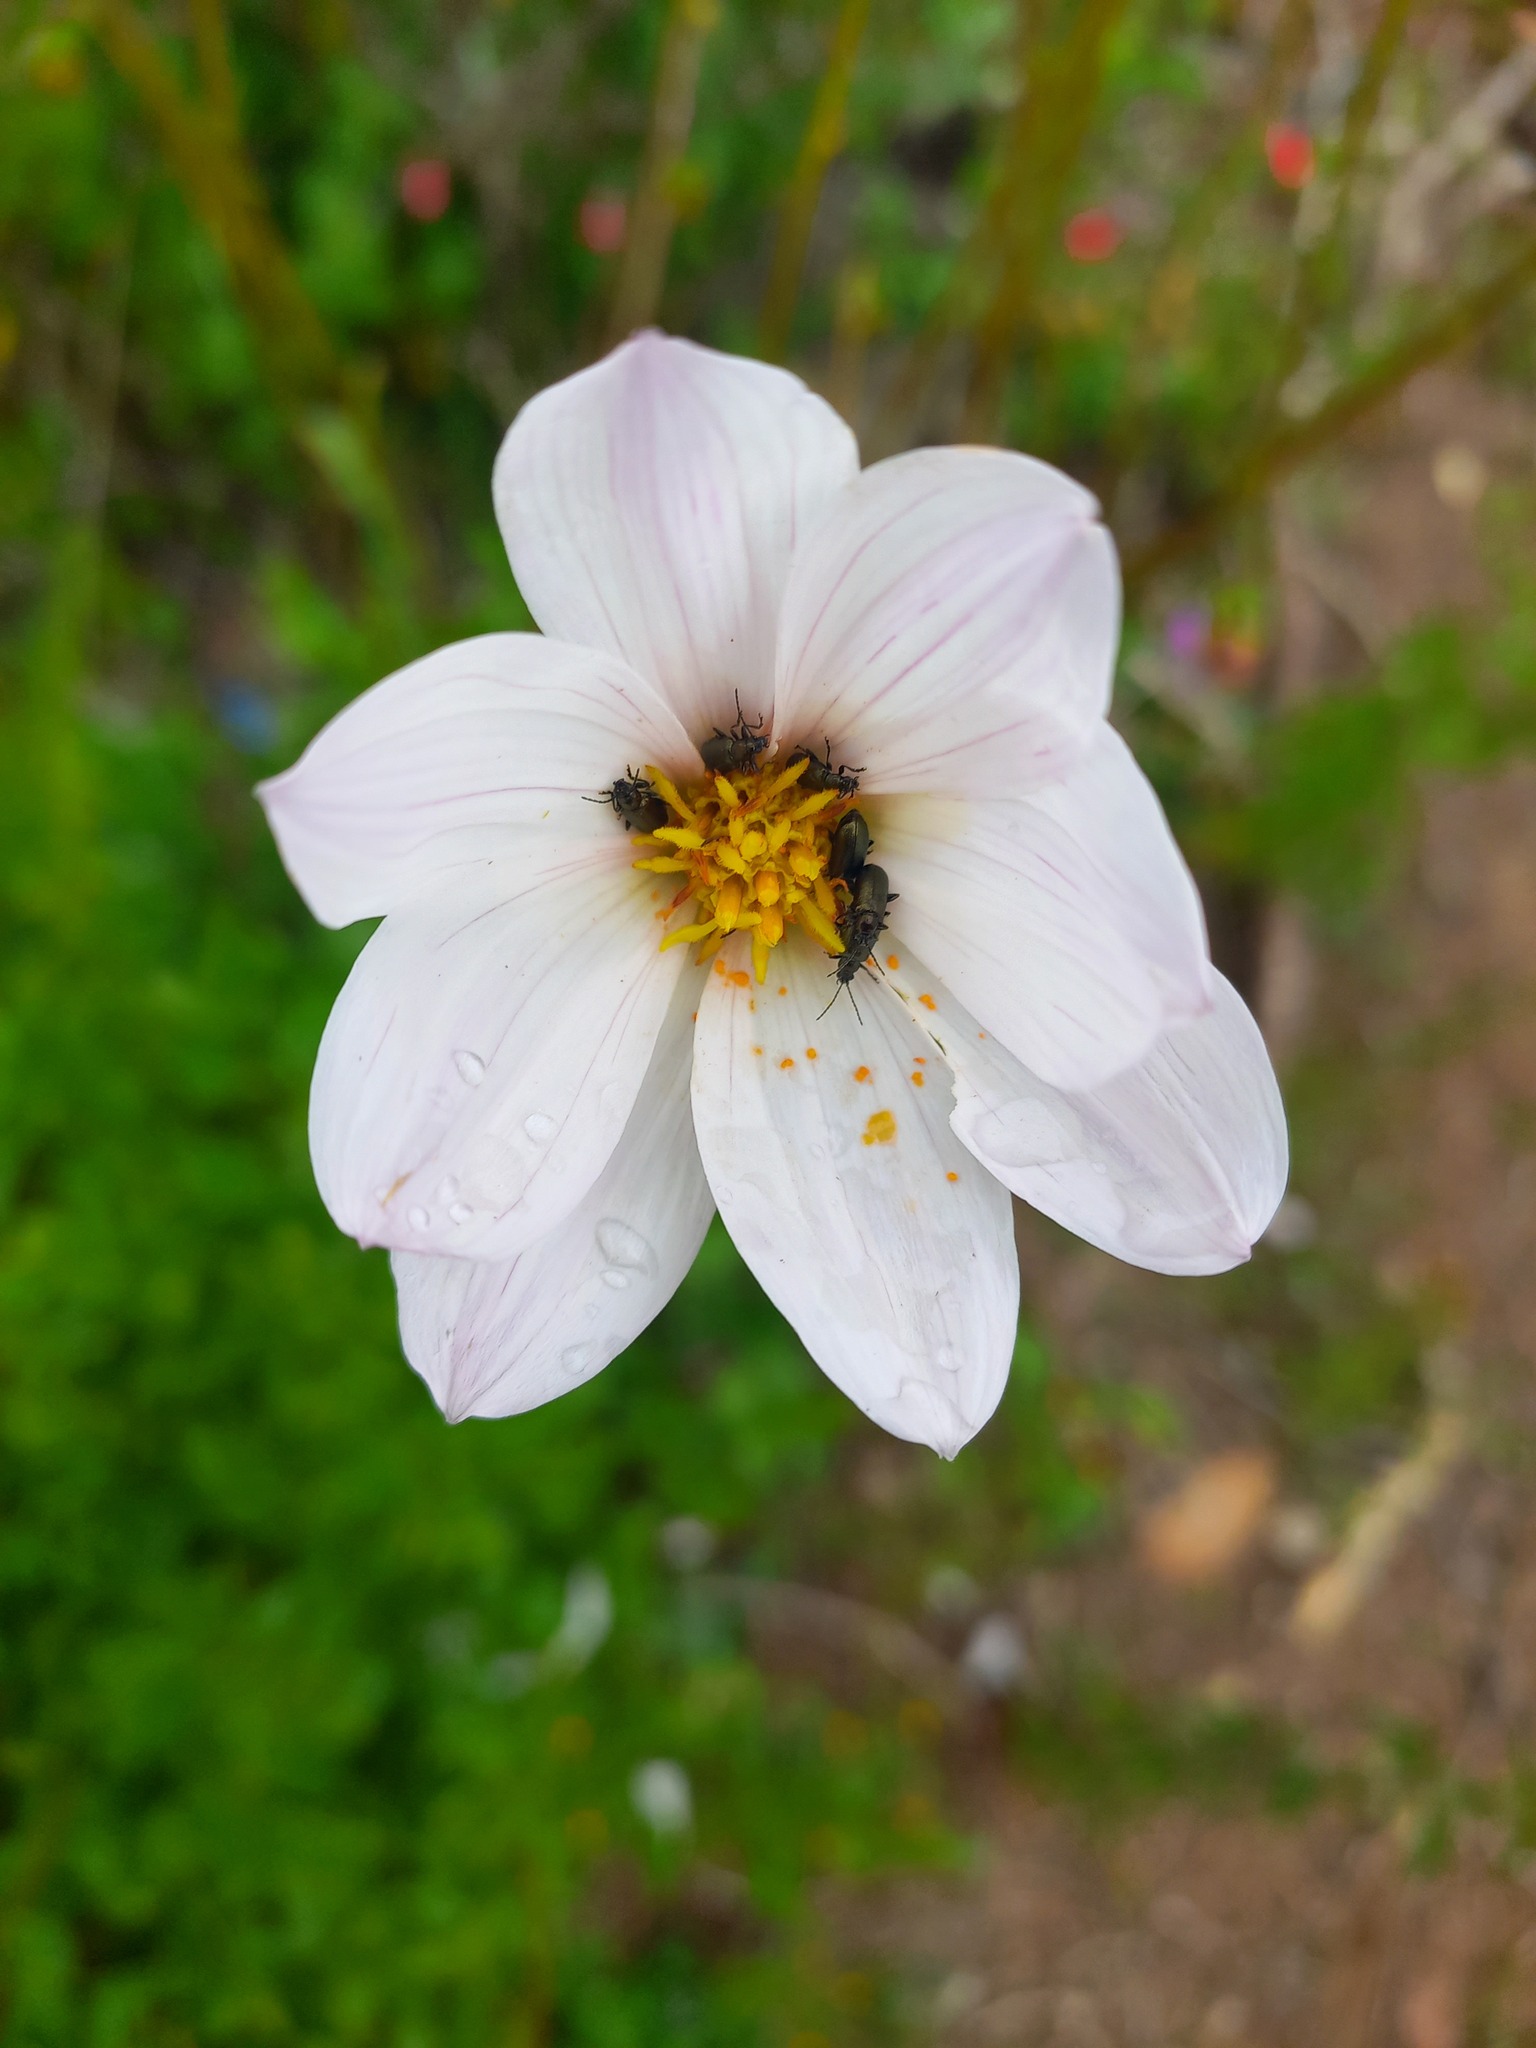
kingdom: Plantae
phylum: Tracheophyta
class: Magnoliopsida
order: Asterales
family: Asteraceae
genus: Dahlia
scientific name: Dahlia merckii
